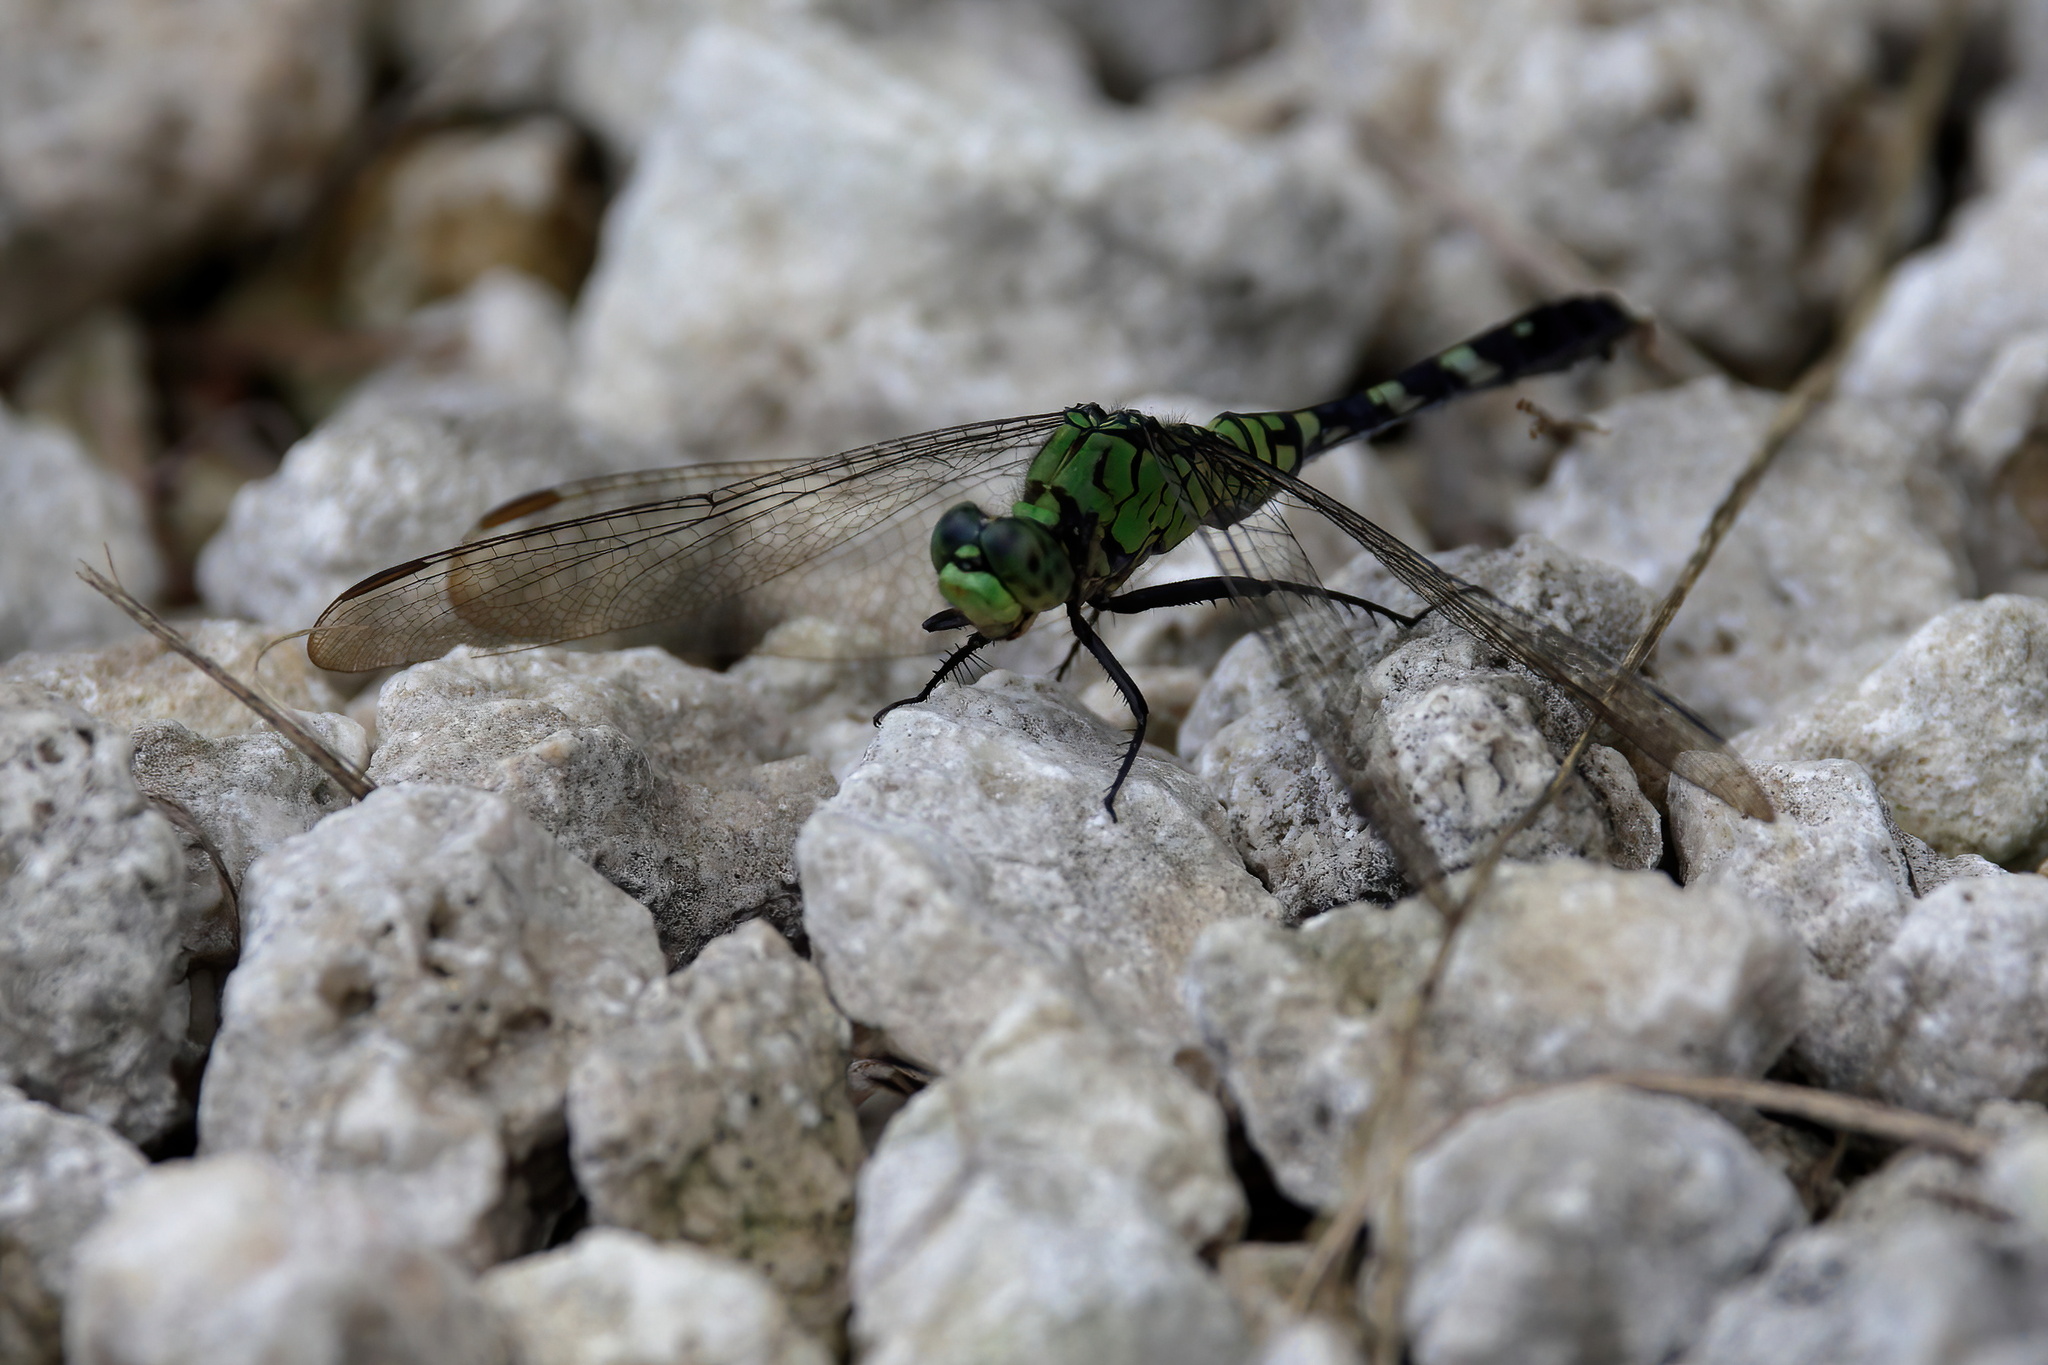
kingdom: Animalia
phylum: Arthropoda
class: Insecta
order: Odonata
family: Libellulidae
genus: Erythemis
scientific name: Erythemis simplicicollis
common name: Eastern pondhawk
